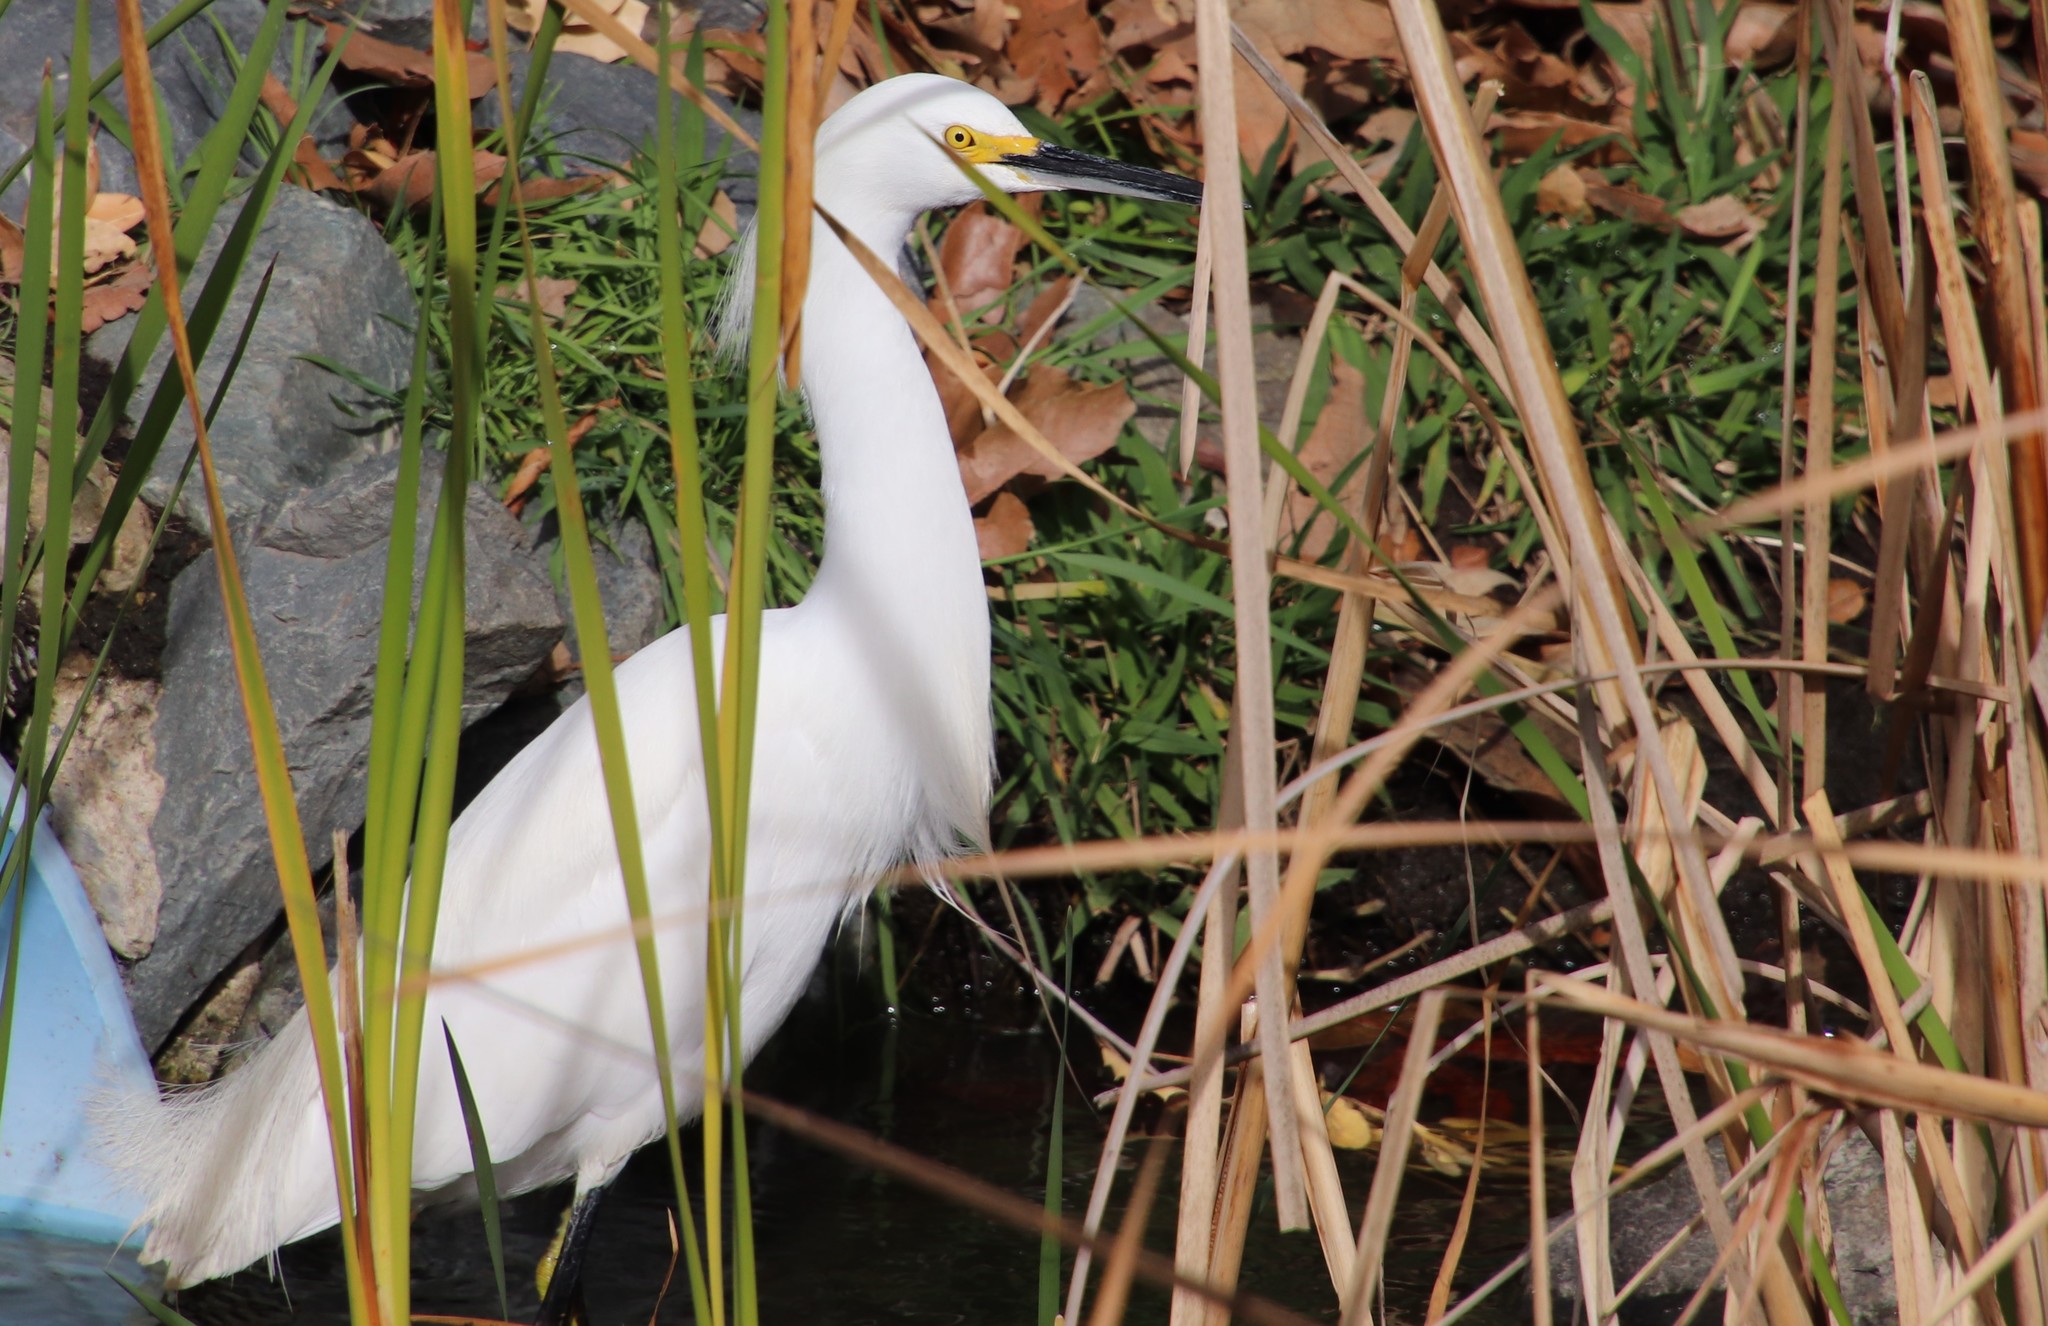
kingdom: Animalia
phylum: Chordata
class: Aves
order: Pelecaniformes
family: Ardeidae
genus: Egretta
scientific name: Egretta thula
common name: Snowy egret
